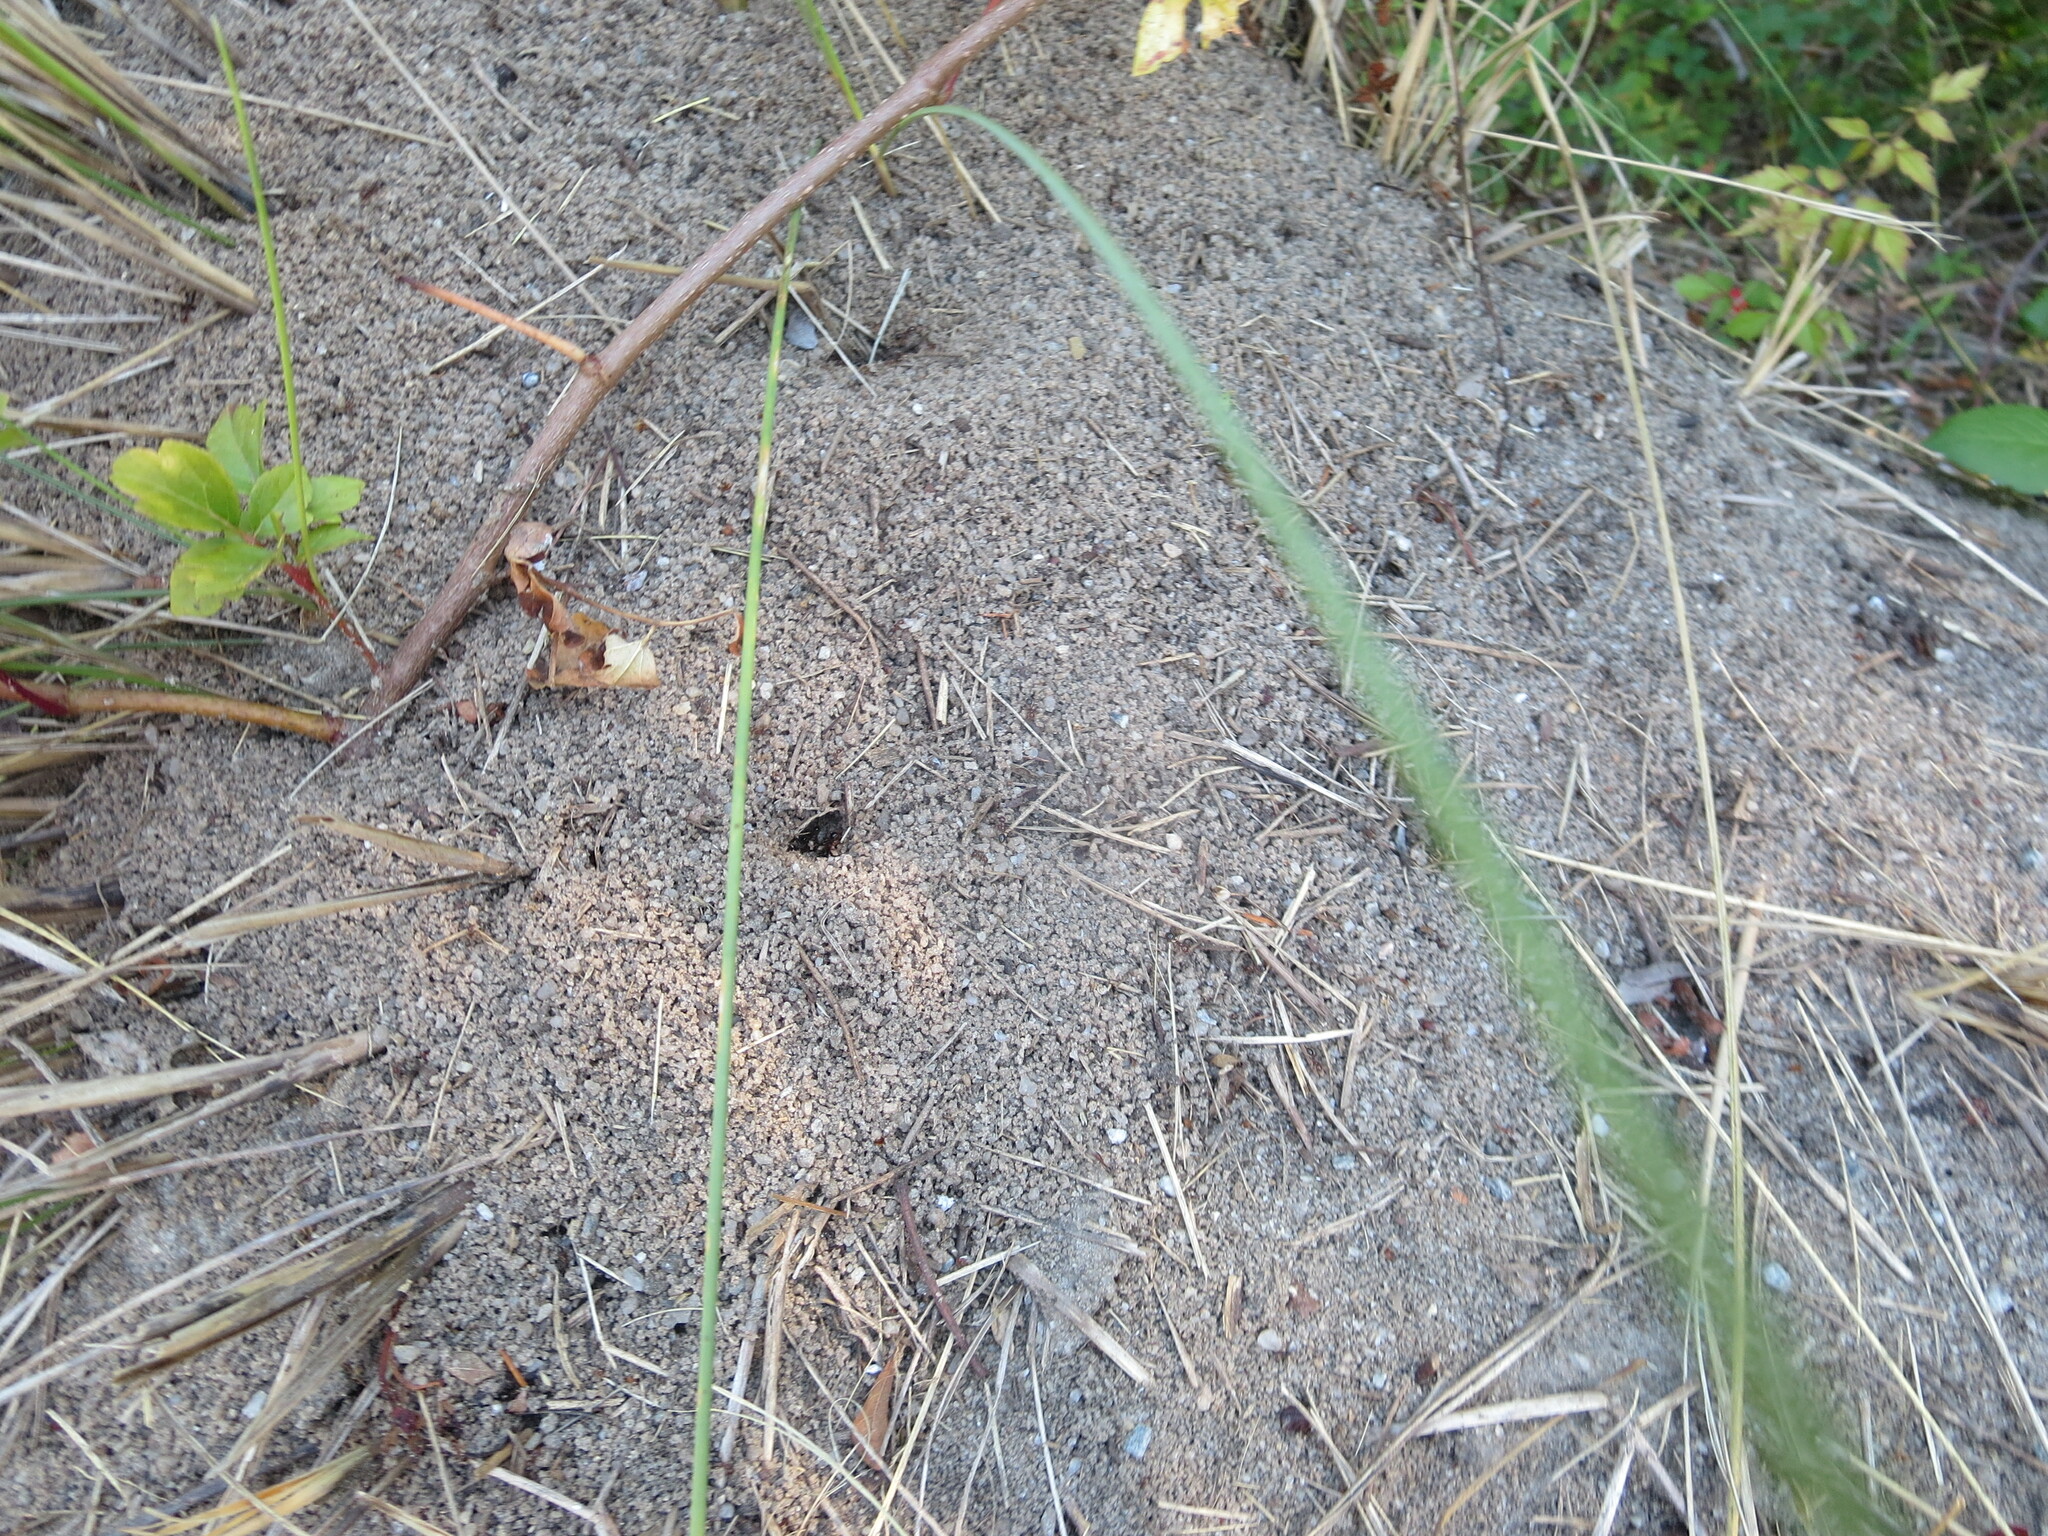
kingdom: Animalia
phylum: Arthropoda
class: Insecta
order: Hymenoptera
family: Formicidae
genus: Solenopsis
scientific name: Solenopsis invicta
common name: Red imported fire ant
